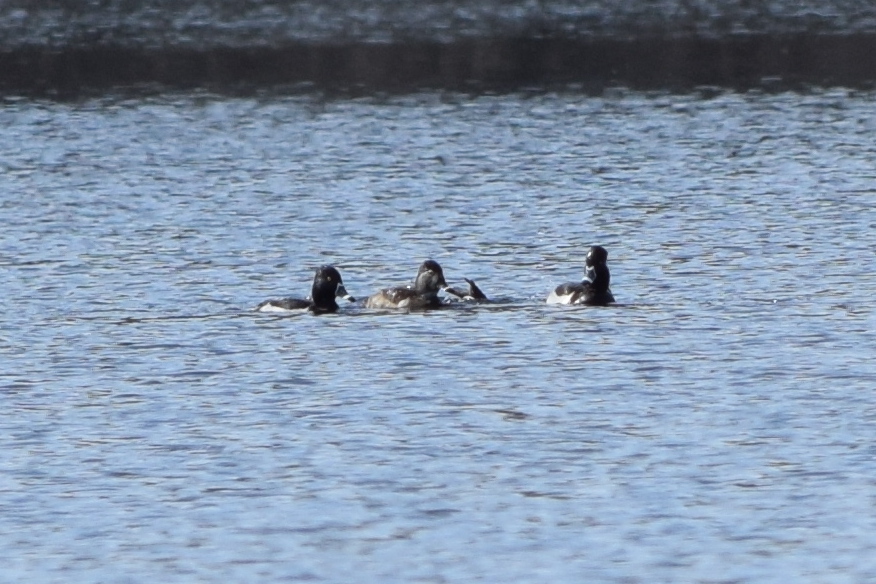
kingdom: Animalia
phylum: Chordata
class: Aves
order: Anseriformes
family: Anatidae
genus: Aythya
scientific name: Aythya collaris
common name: Ring-necked duck
